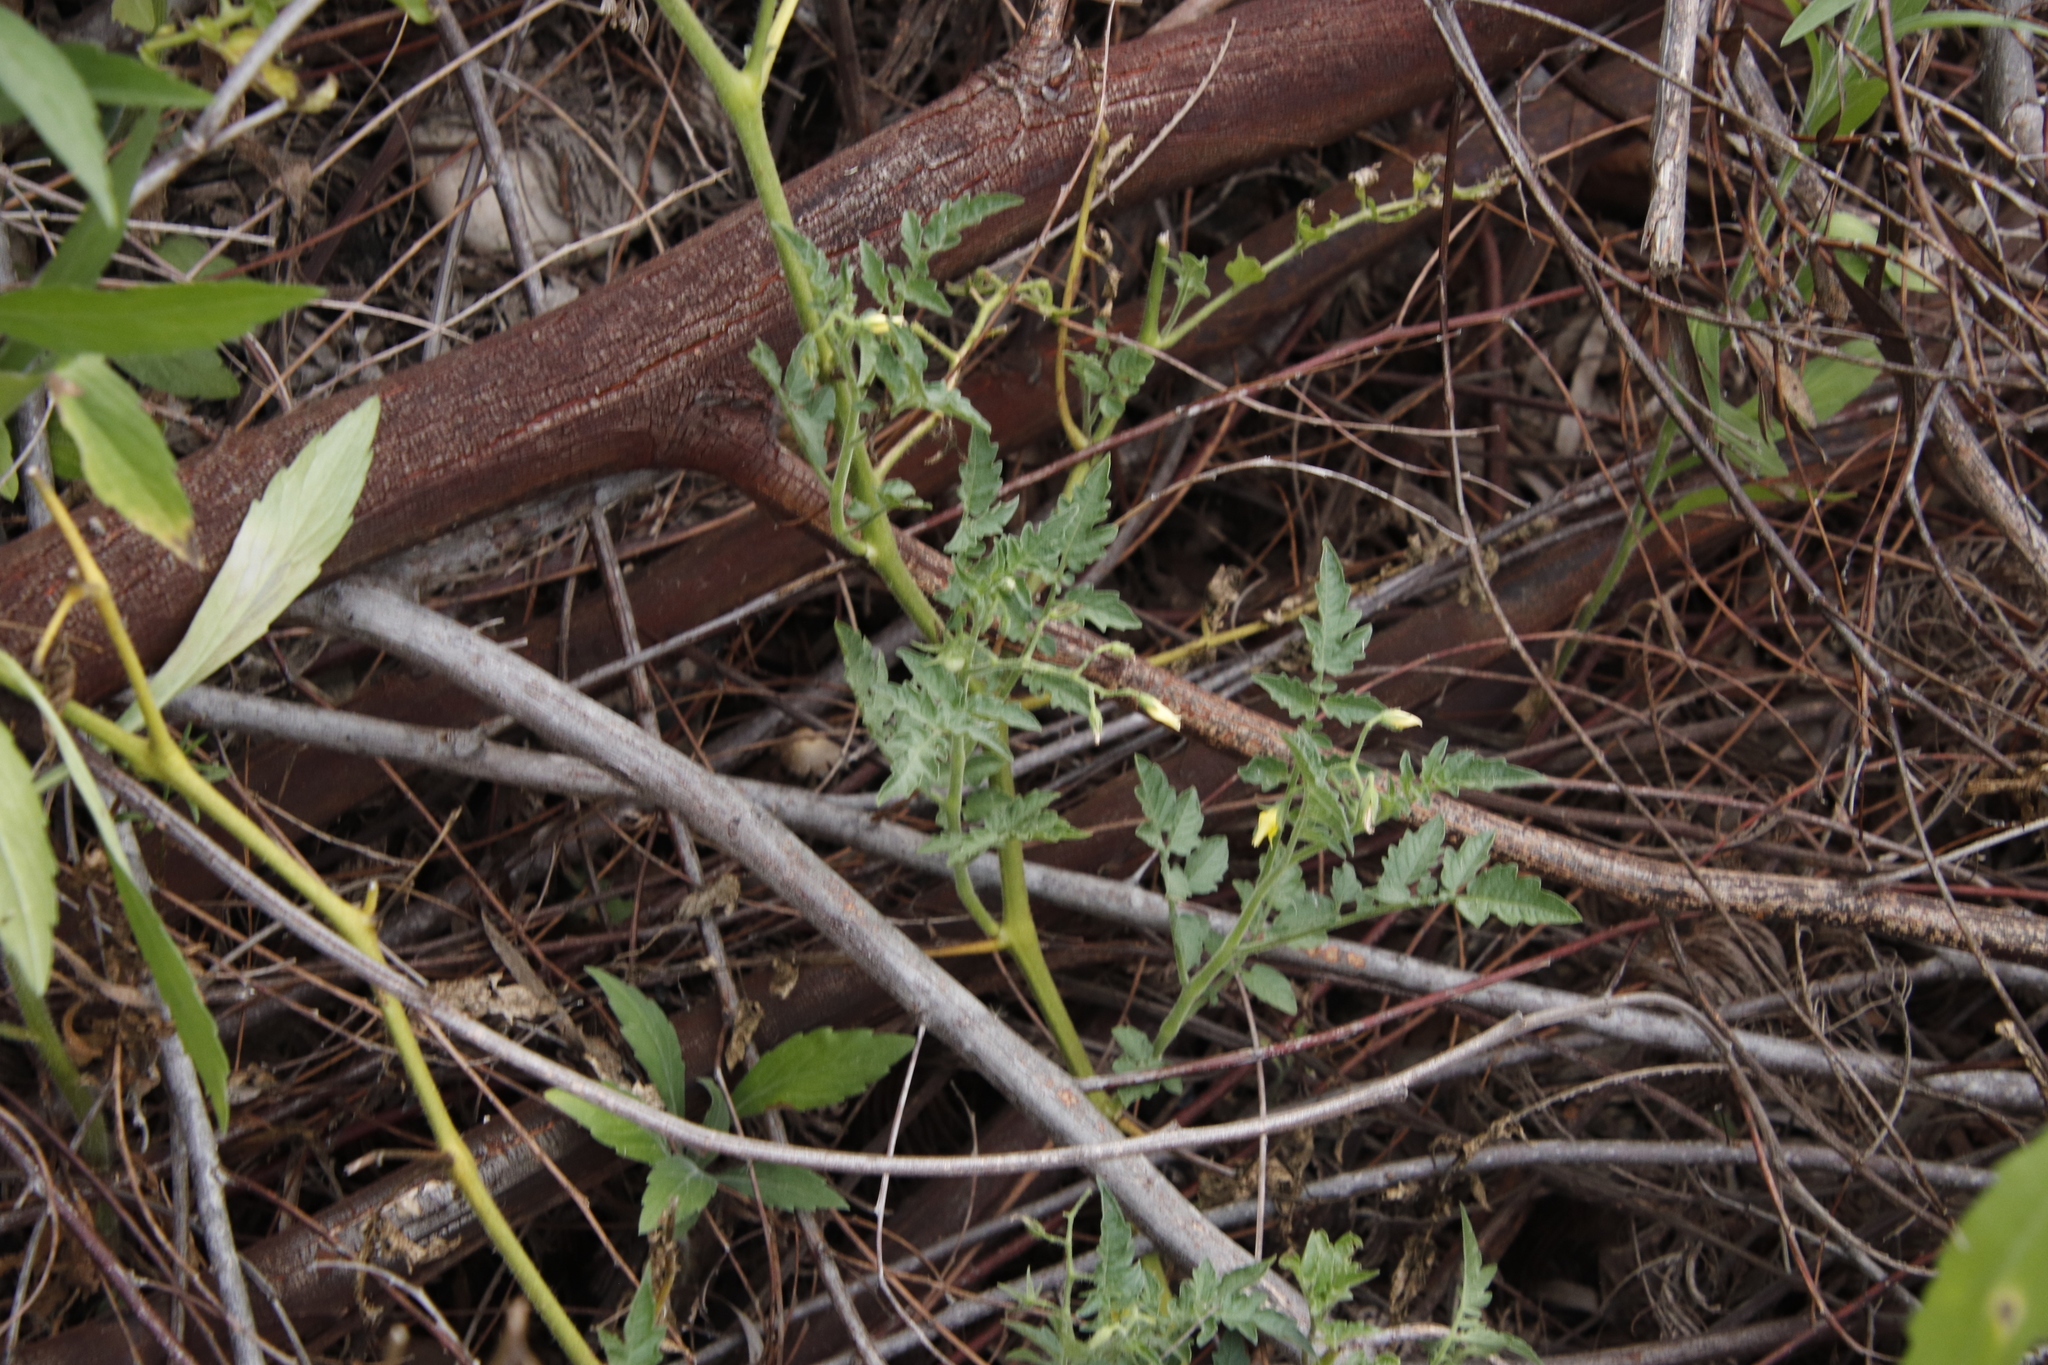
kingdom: Plantae
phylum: Tracheophyta
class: Magnoliopsida
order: Solanales
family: Solanaceae
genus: Solanum
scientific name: Solanum lycopersicum
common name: Garden tomato
